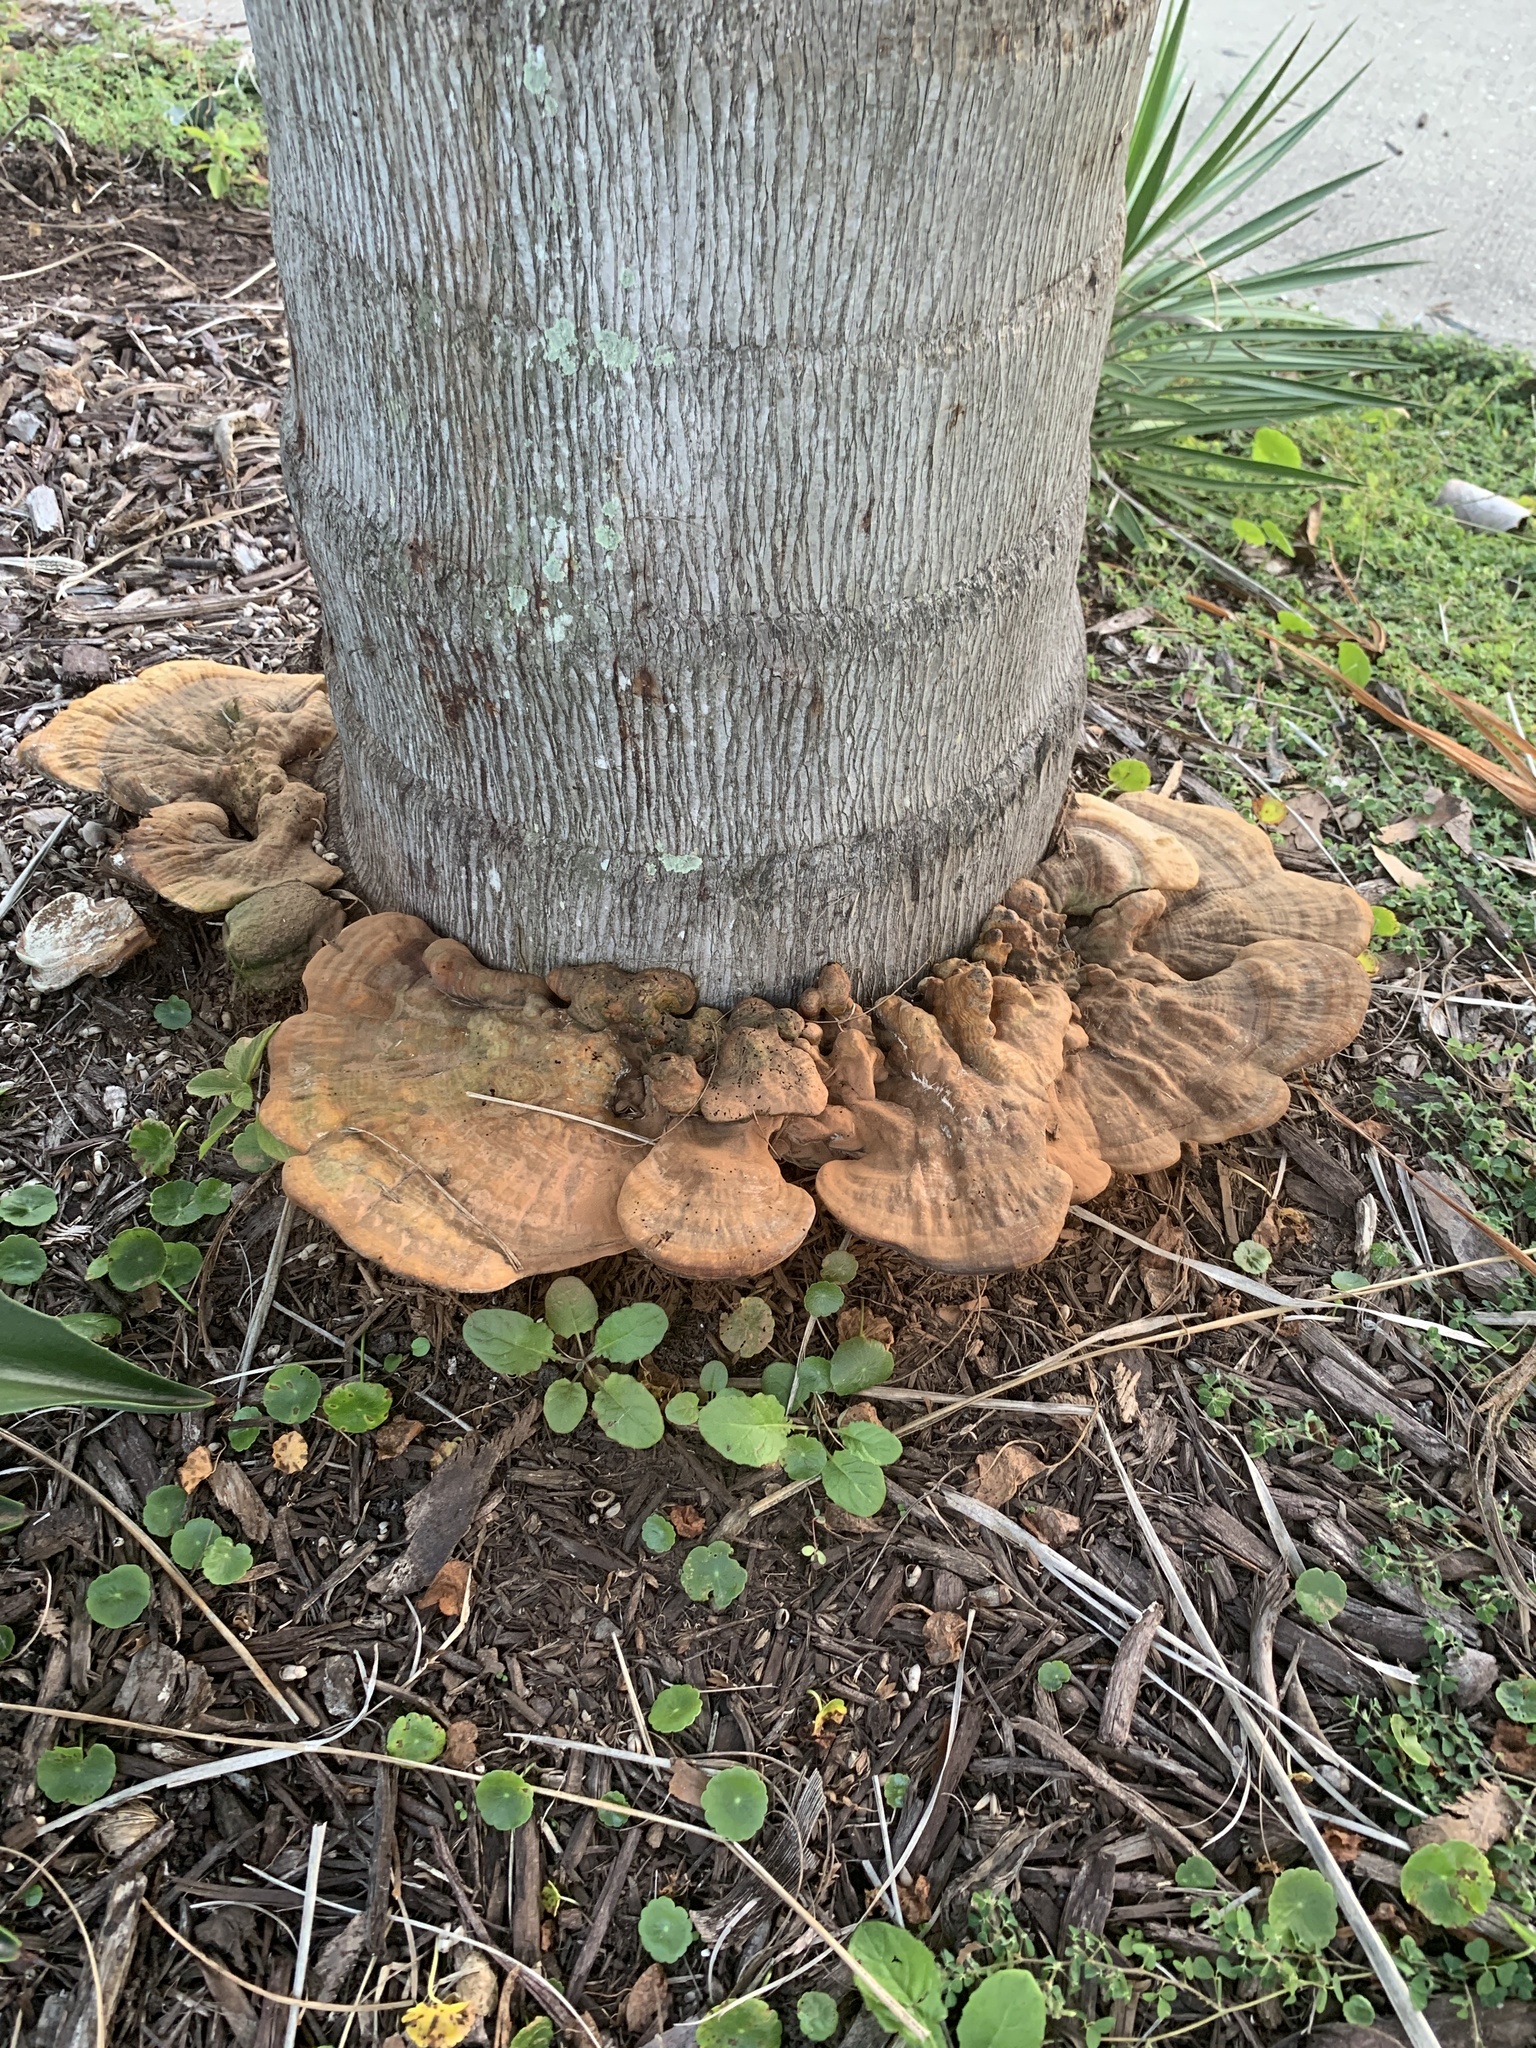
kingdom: Fungi
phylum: Basidiomycota
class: Agaricomycetes
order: Polyporales
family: Polyporaceae
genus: Ganoderma
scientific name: Ganoderma zonatum
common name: Ganoderma butt rot
